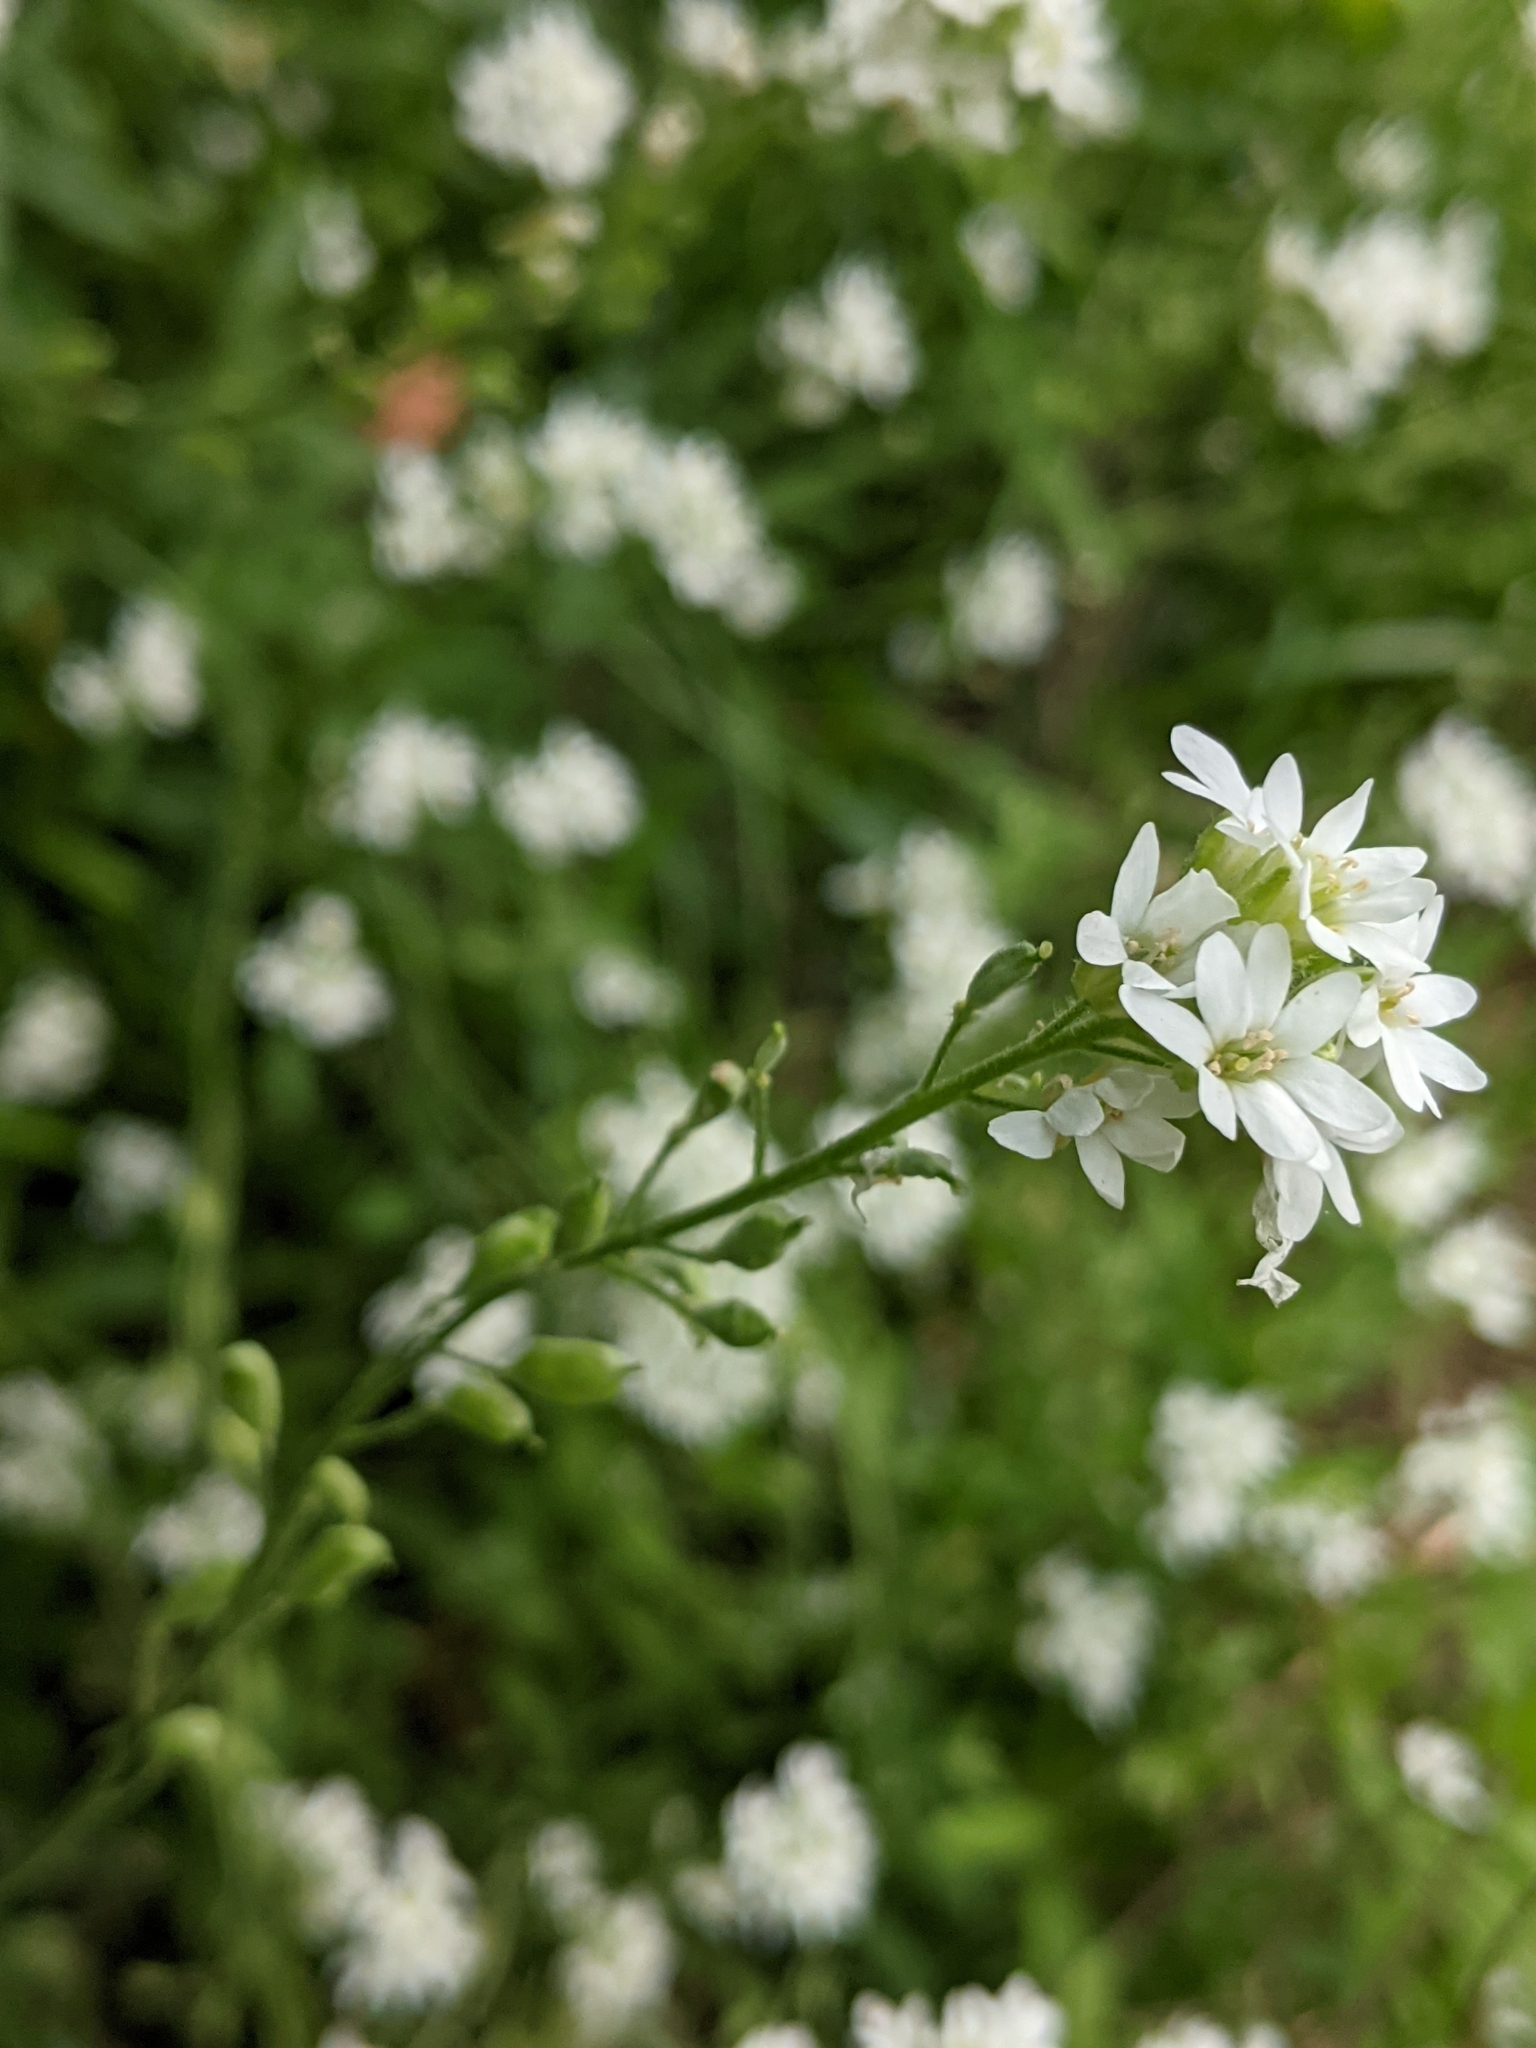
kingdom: Plantae
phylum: Tracheophyta
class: Magnoliopsida
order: Brassicales
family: Brassicaceae
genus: Berteroa
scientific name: Berteroa incana
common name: Hoary alison
